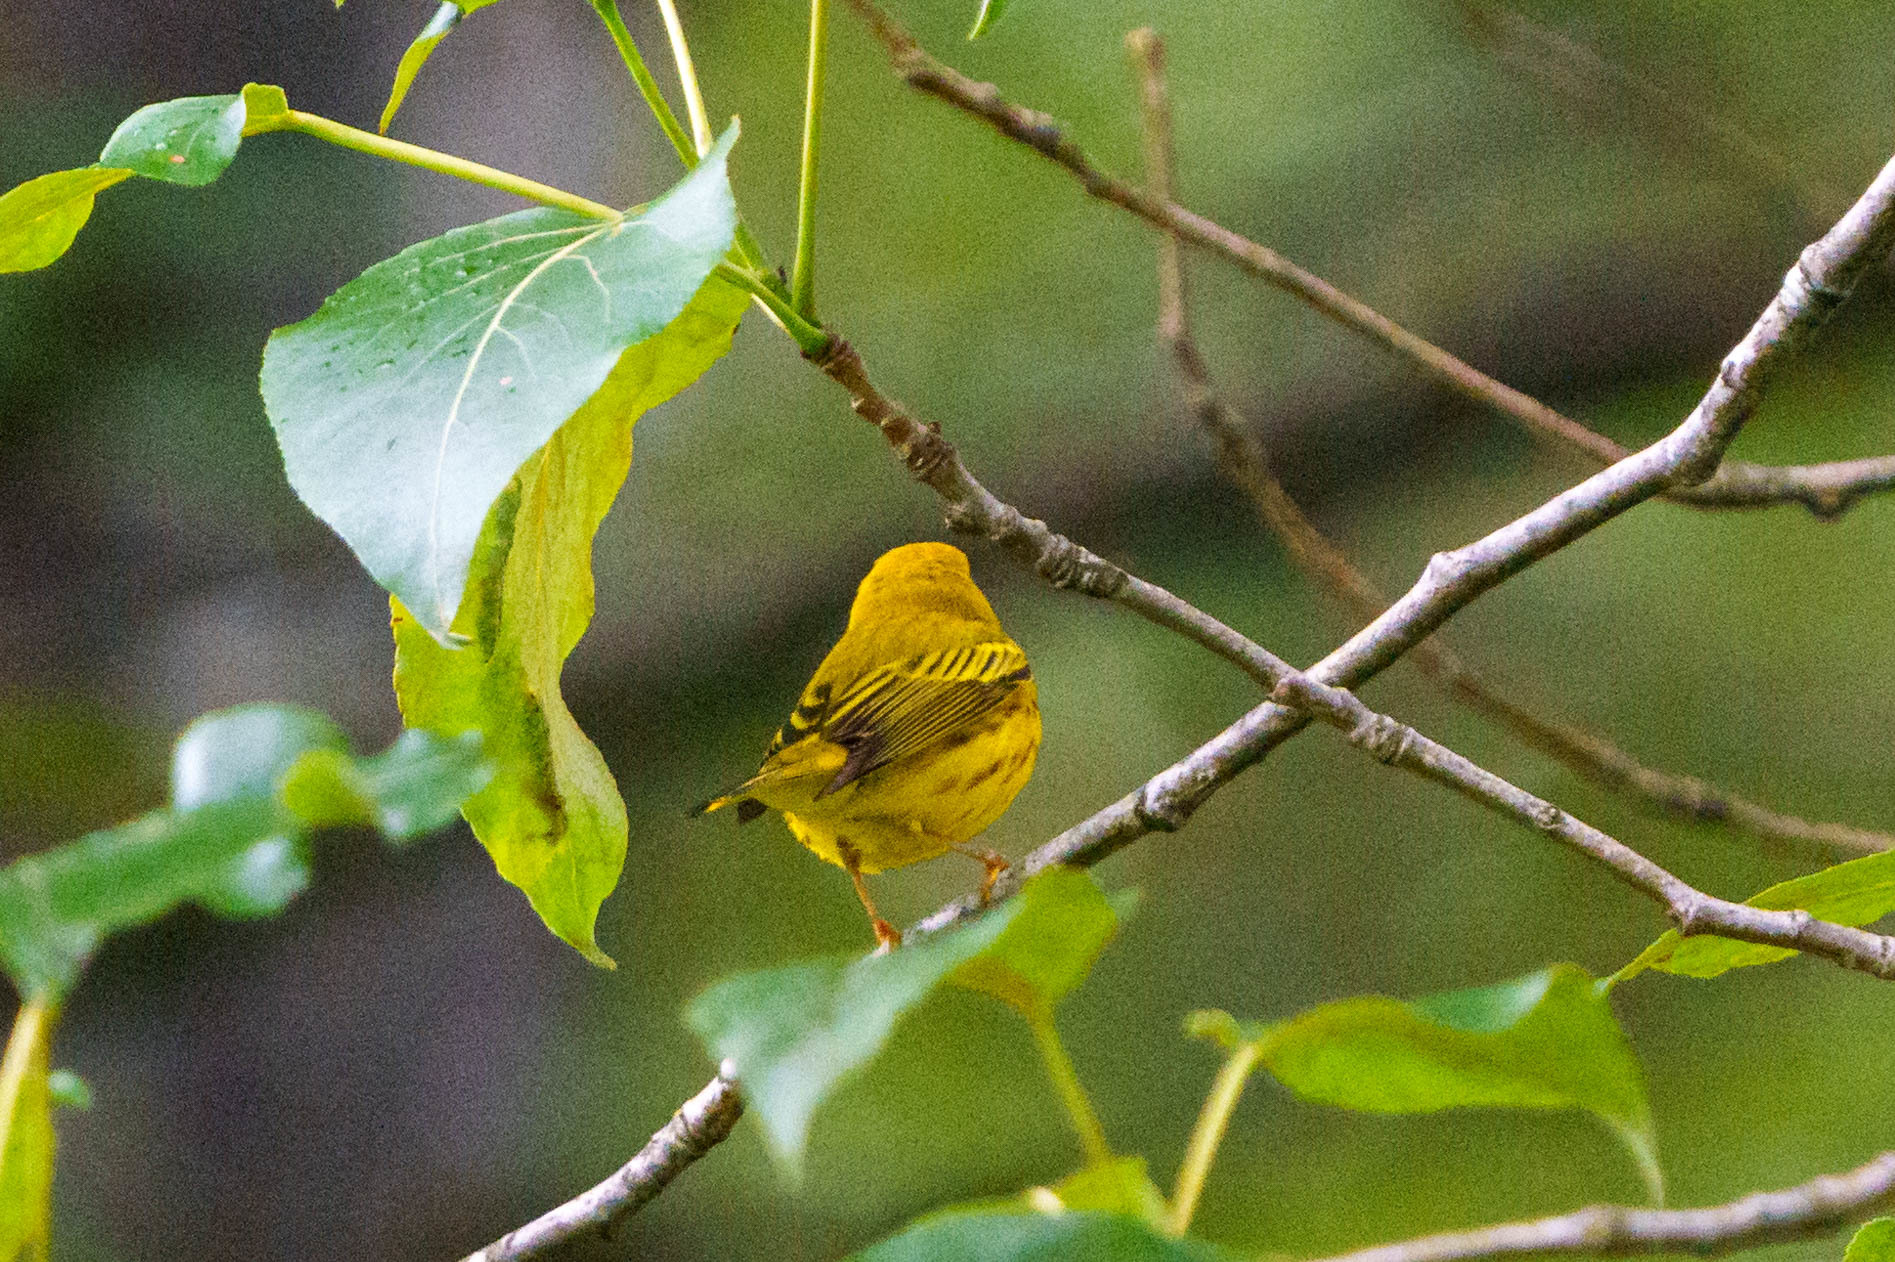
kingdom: Animalia
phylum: Chordata
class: Aves
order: Passeriformes
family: Parulidae
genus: Setophaga
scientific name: Setophaga petechia
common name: Yellow warbler
